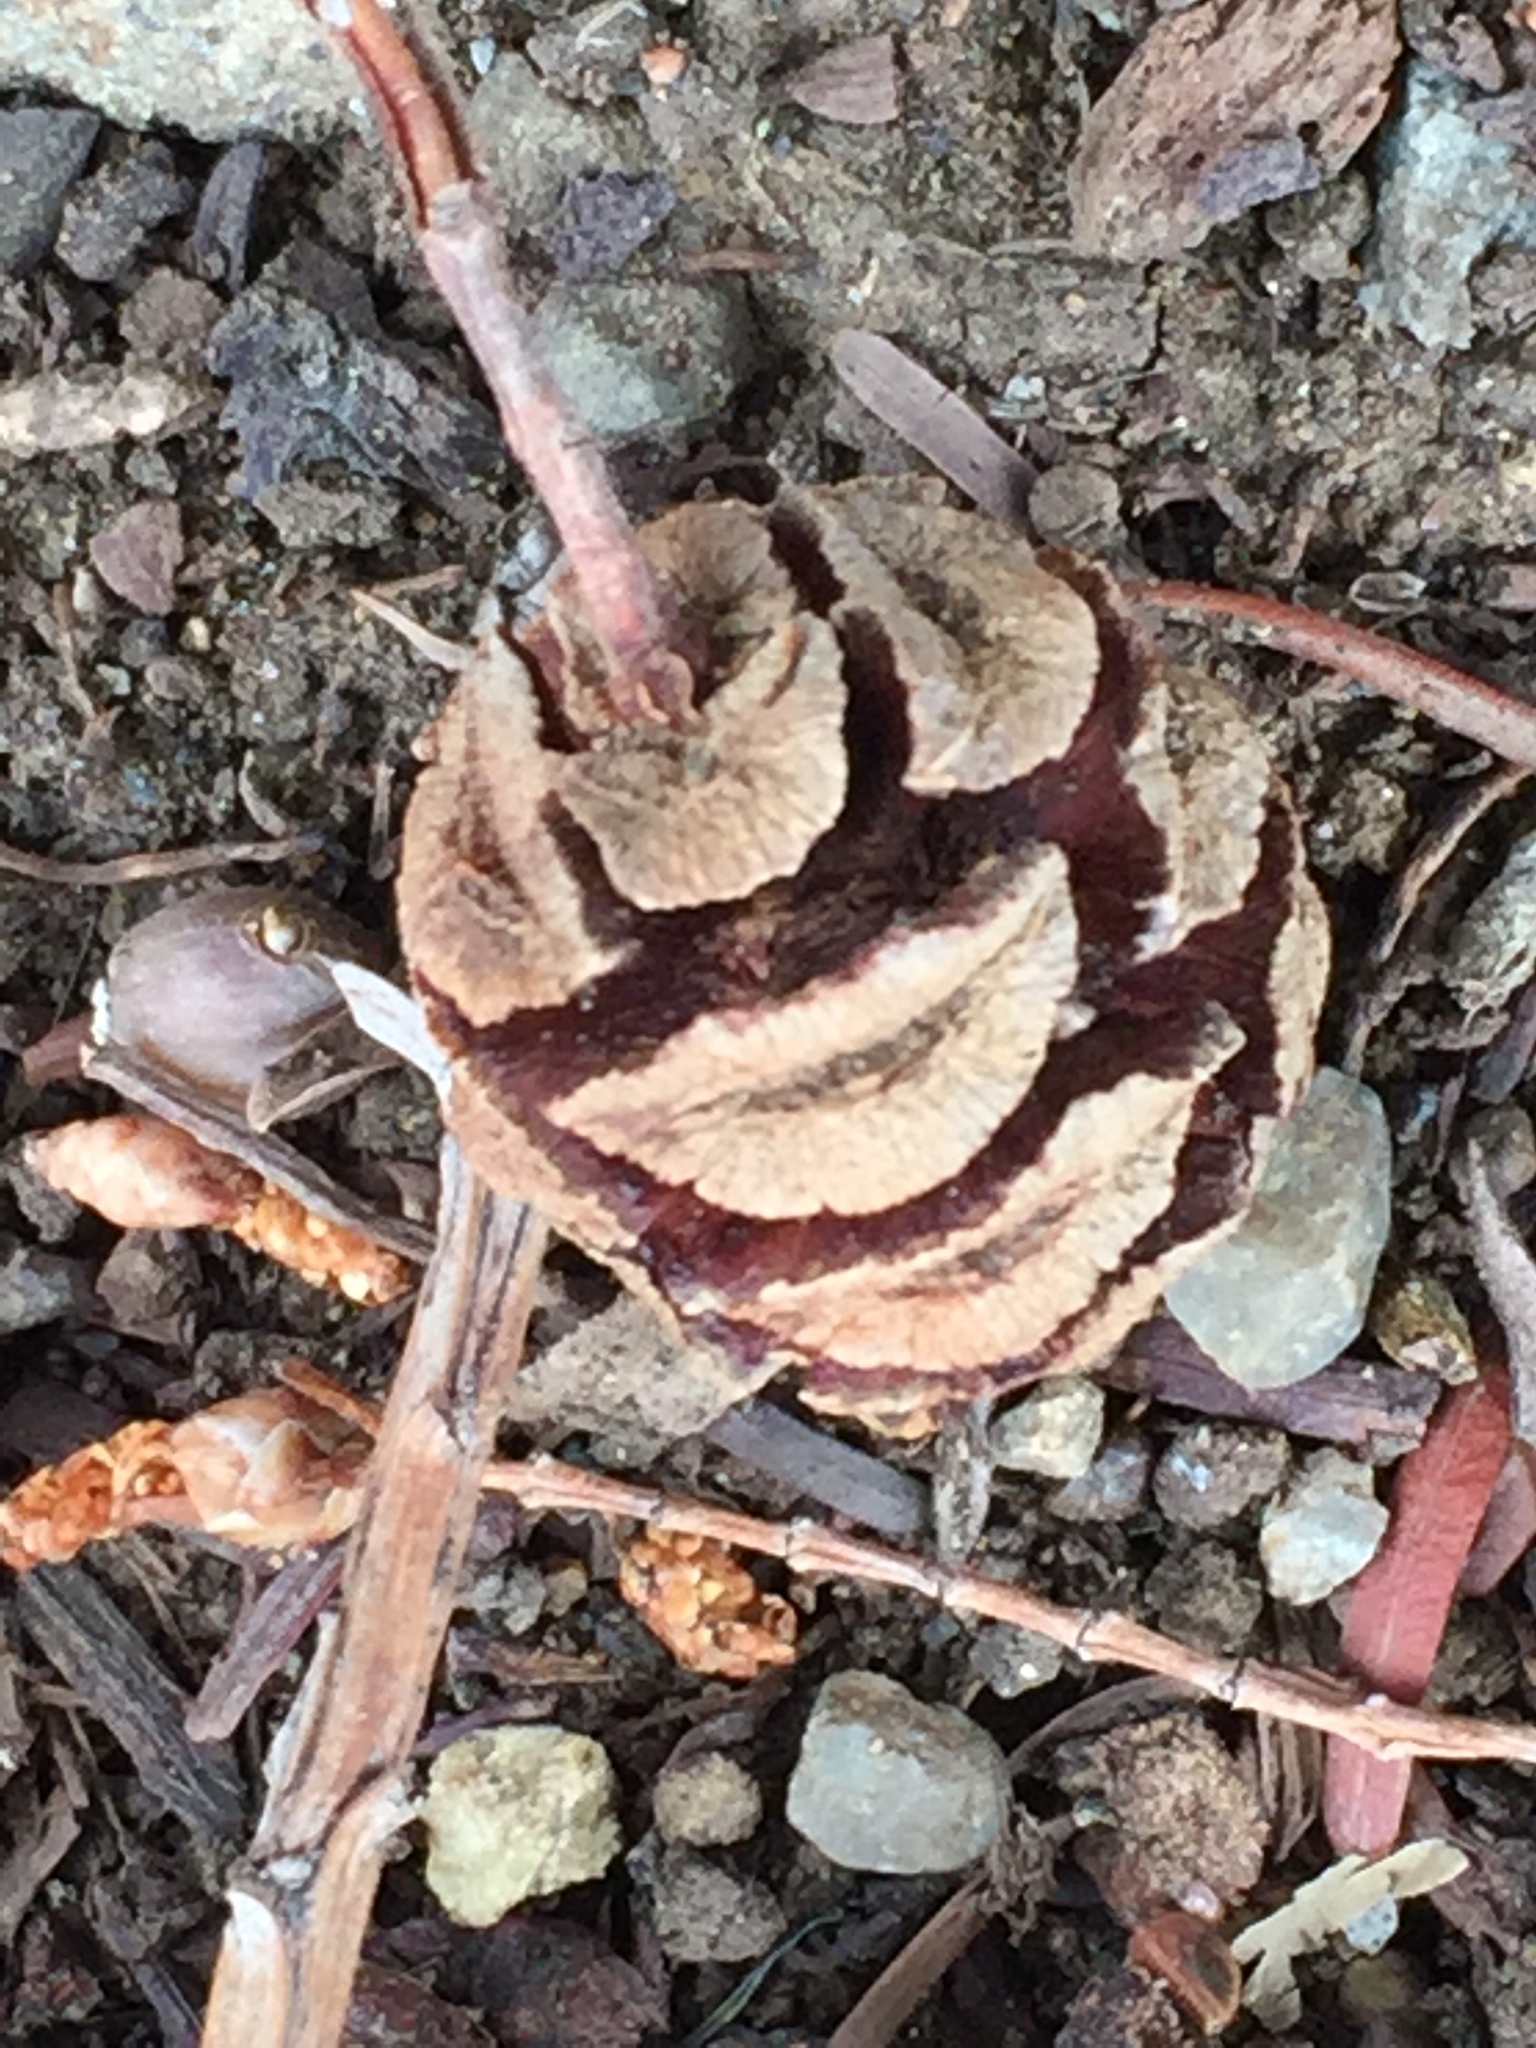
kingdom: Plantae
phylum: Tracheophyta
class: Pinopsida
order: Pinales
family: Cupressaceae
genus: Sequoia
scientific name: Sequoia sempervirens
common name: Coast redwood
